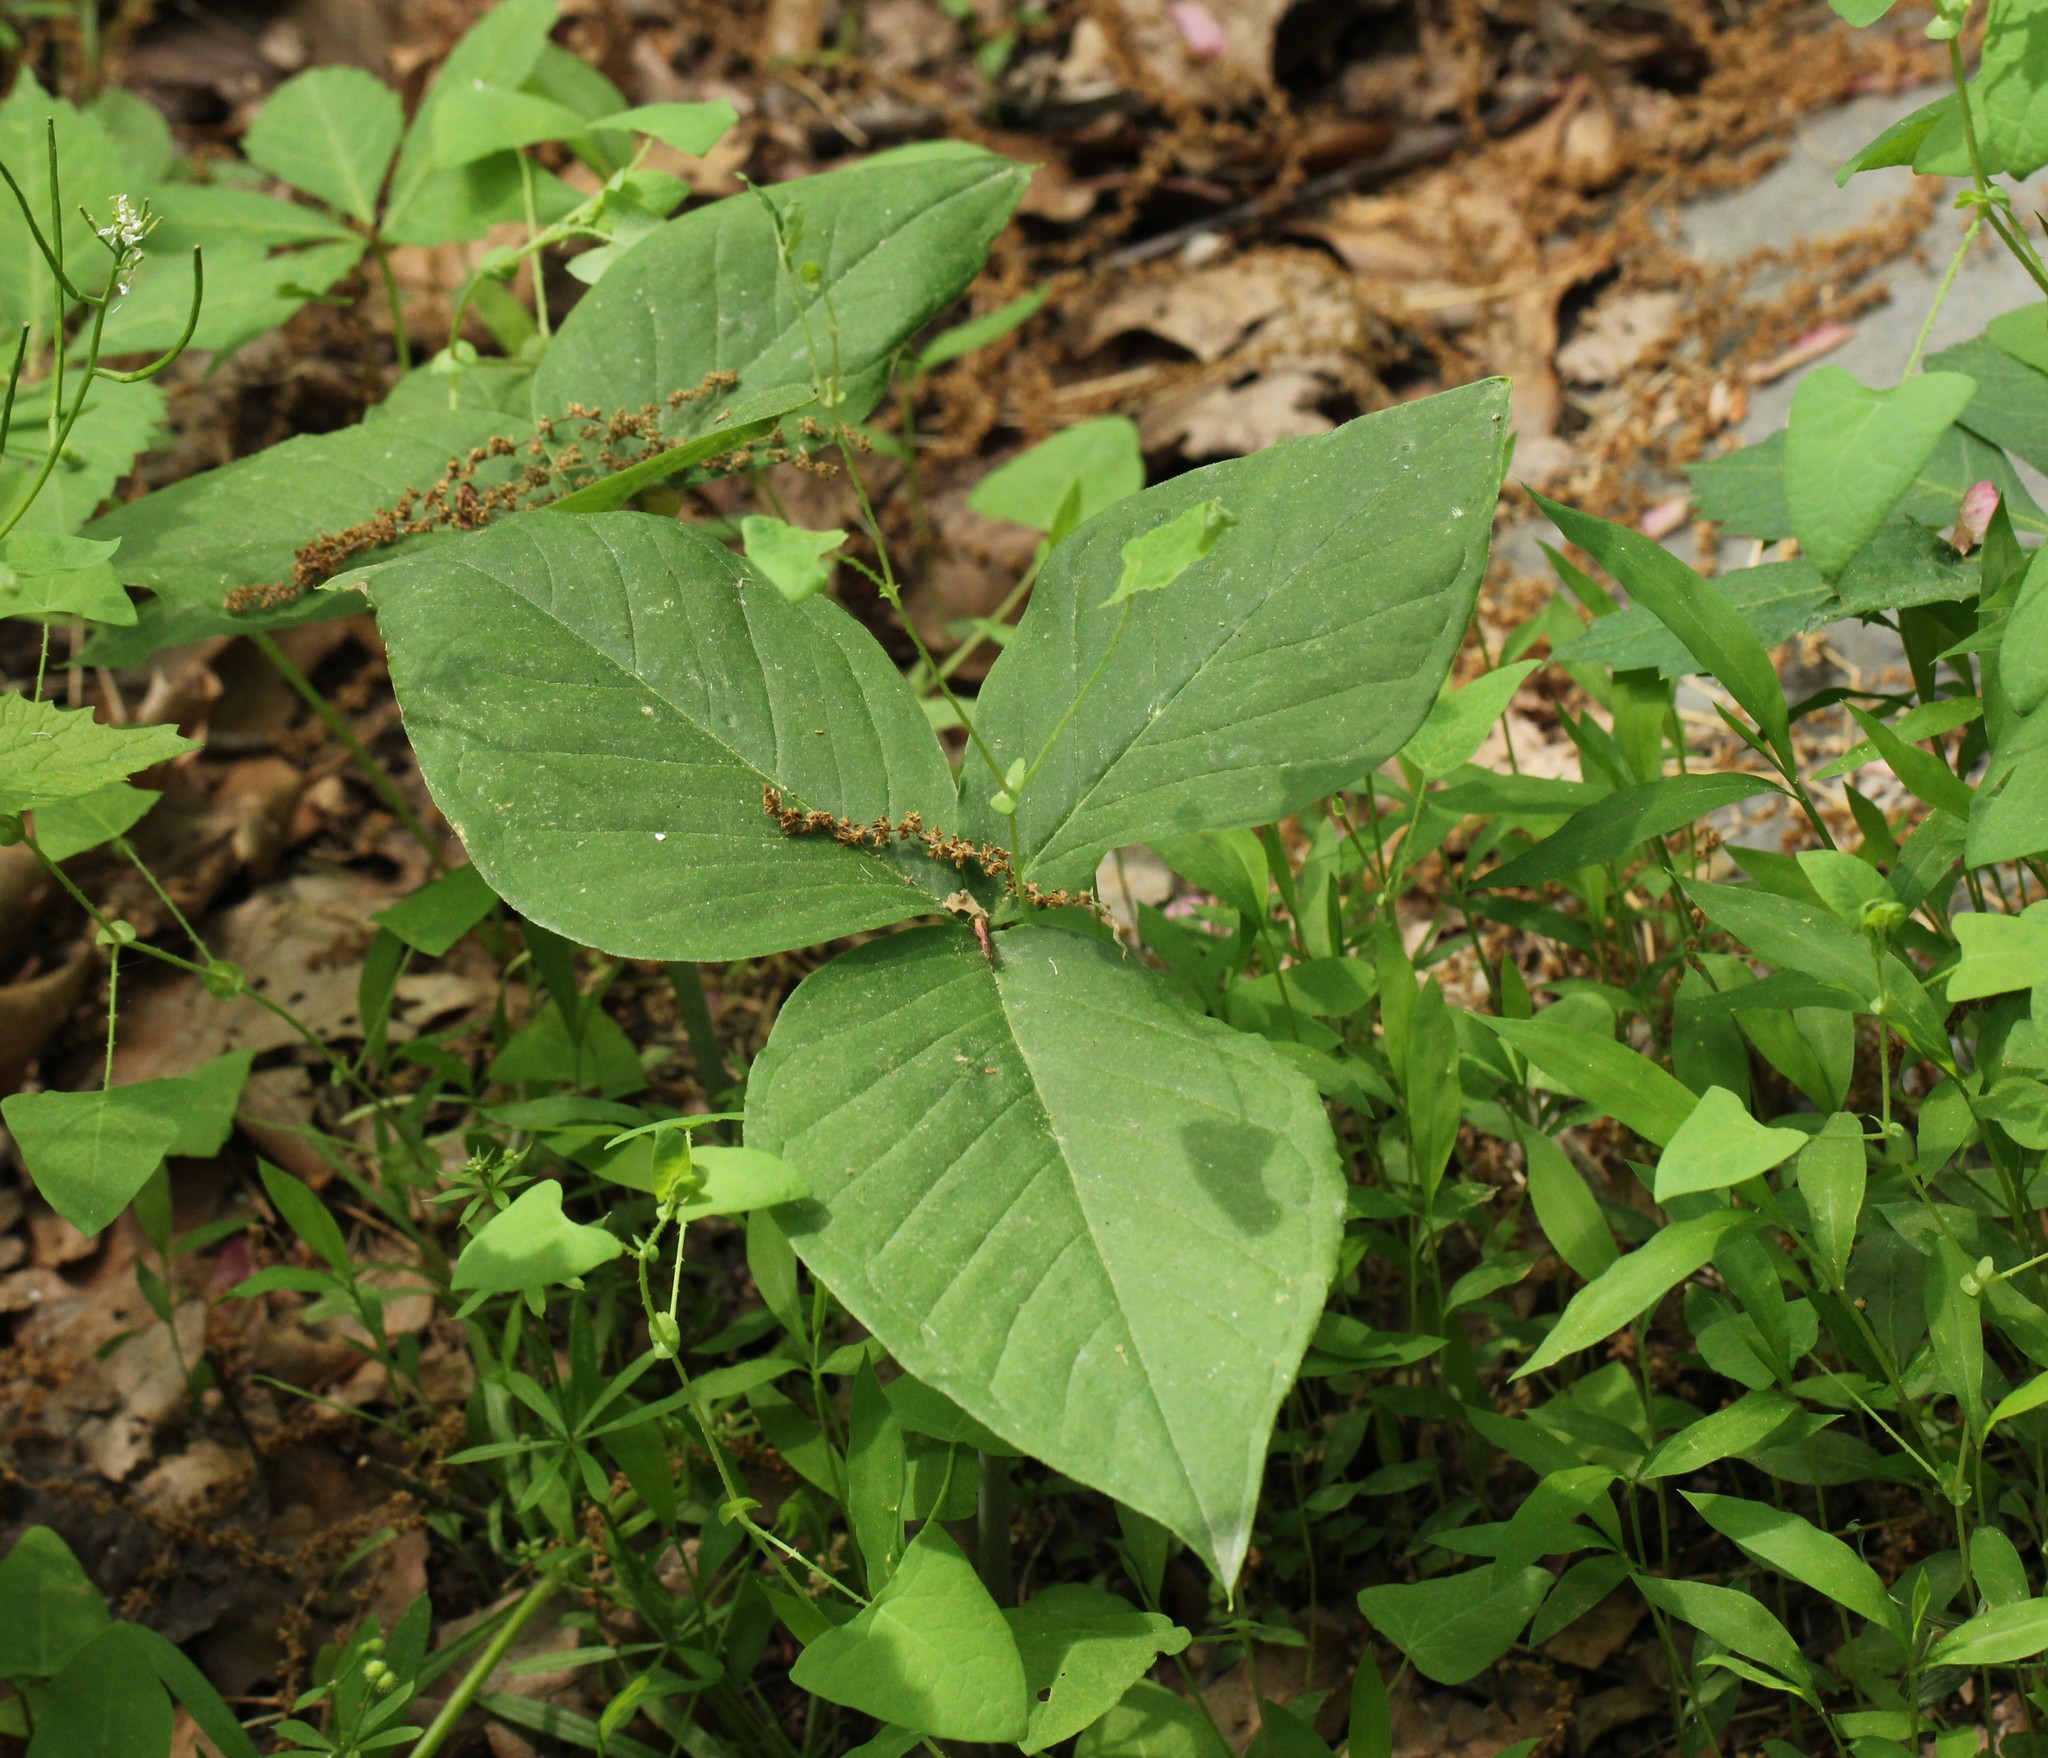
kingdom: Plantae
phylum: Tracheophyta
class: Liliopsida
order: Alismatales
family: Araceae
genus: Arisaema
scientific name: Arisaema triphyllum
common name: Jack-in-the-pulpit
